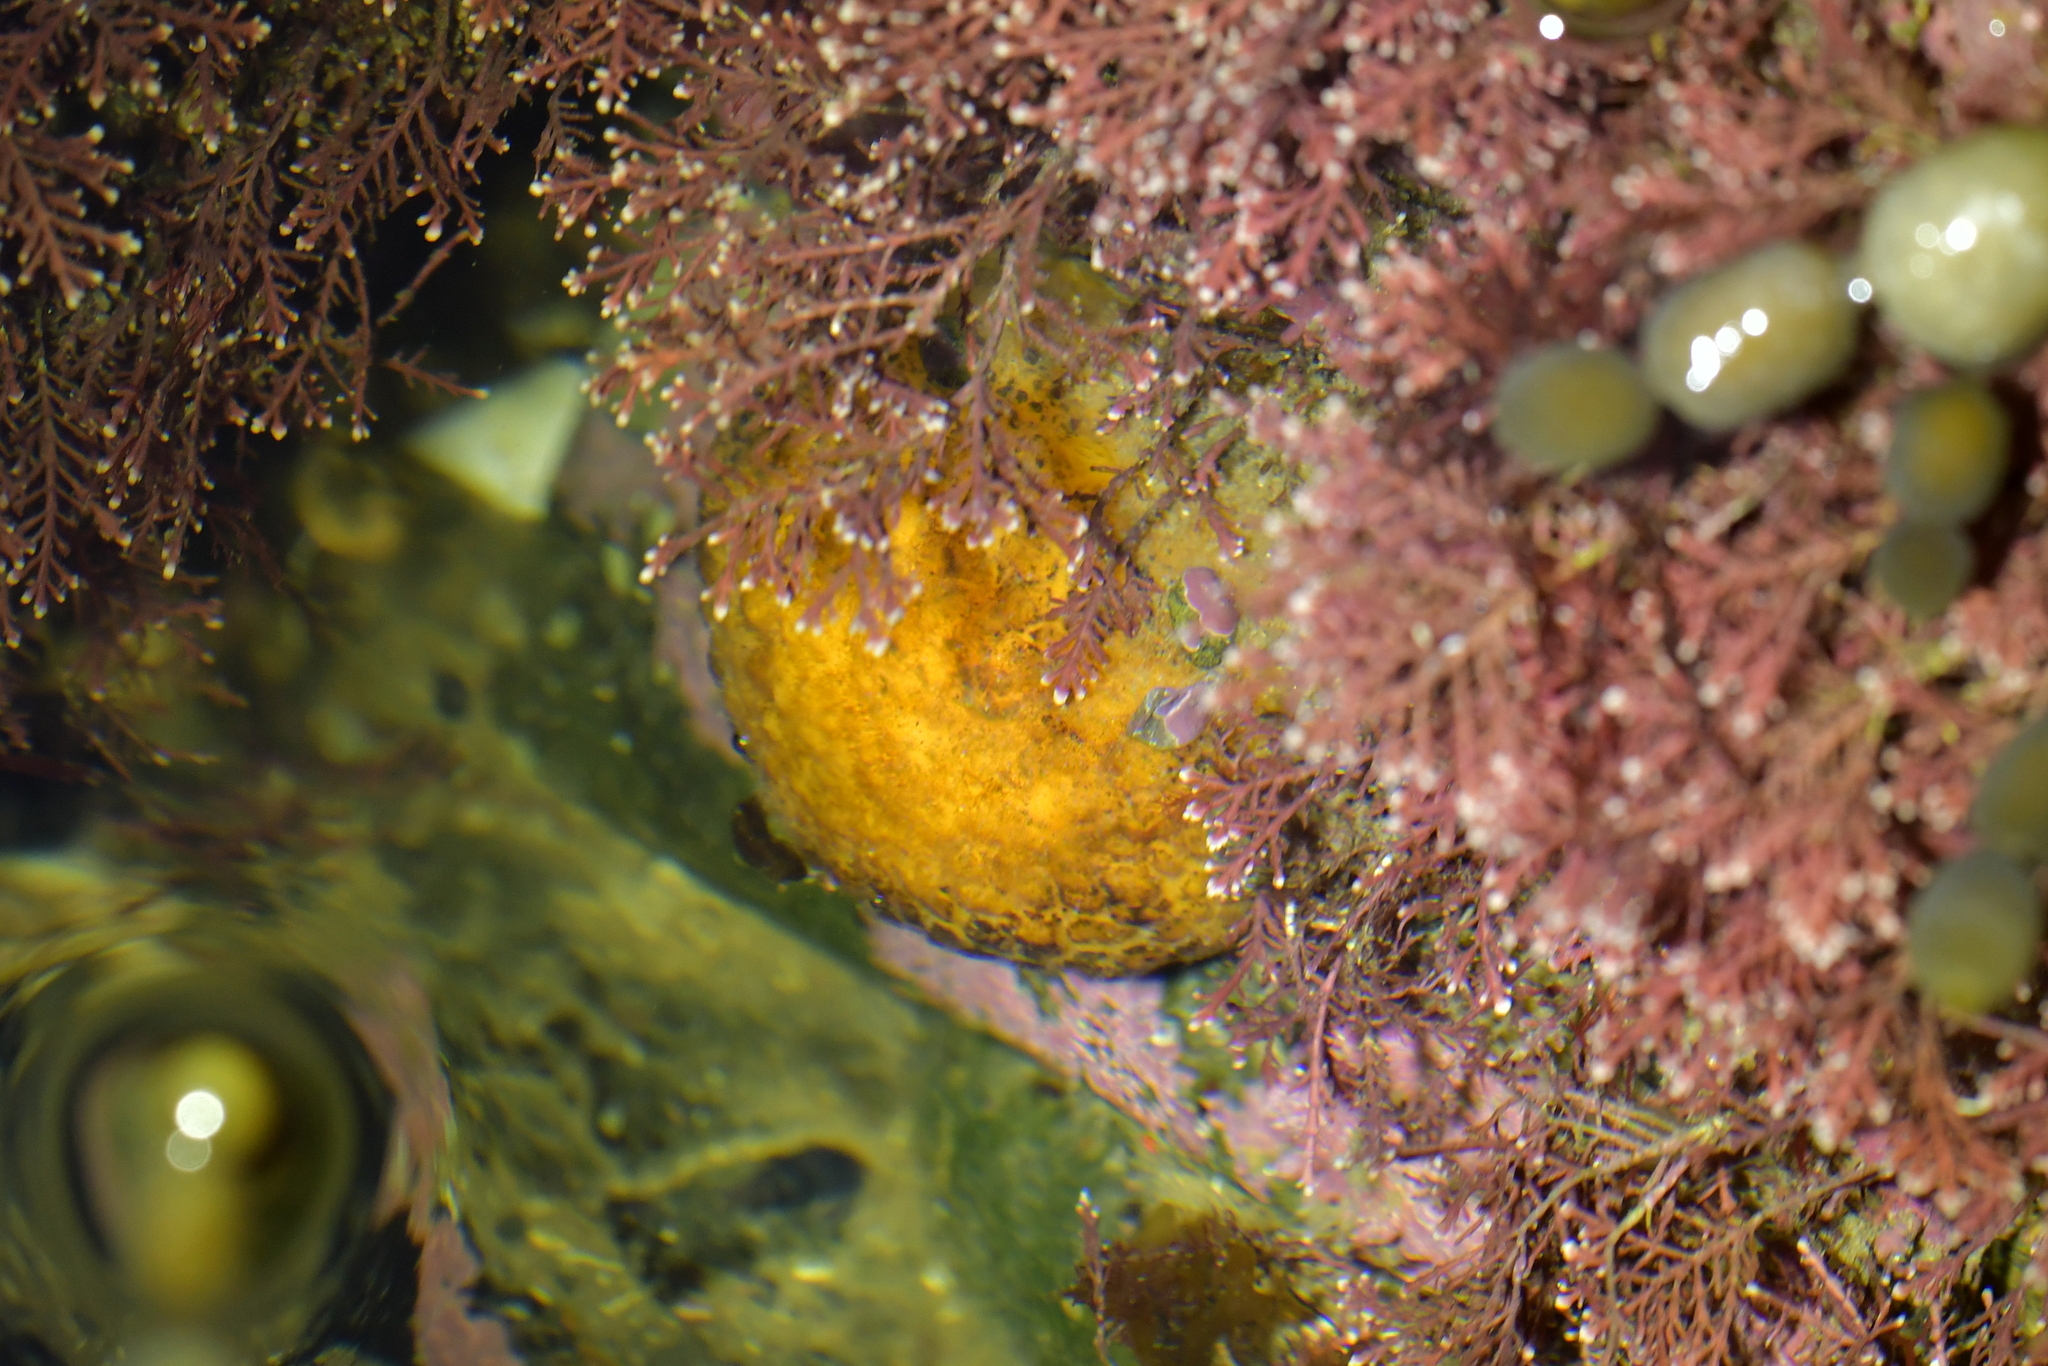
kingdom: Animalia
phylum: Porifera
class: Demospongiae
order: Tethyida
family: Tethyidae
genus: Tethya
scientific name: Tethya burtoni
